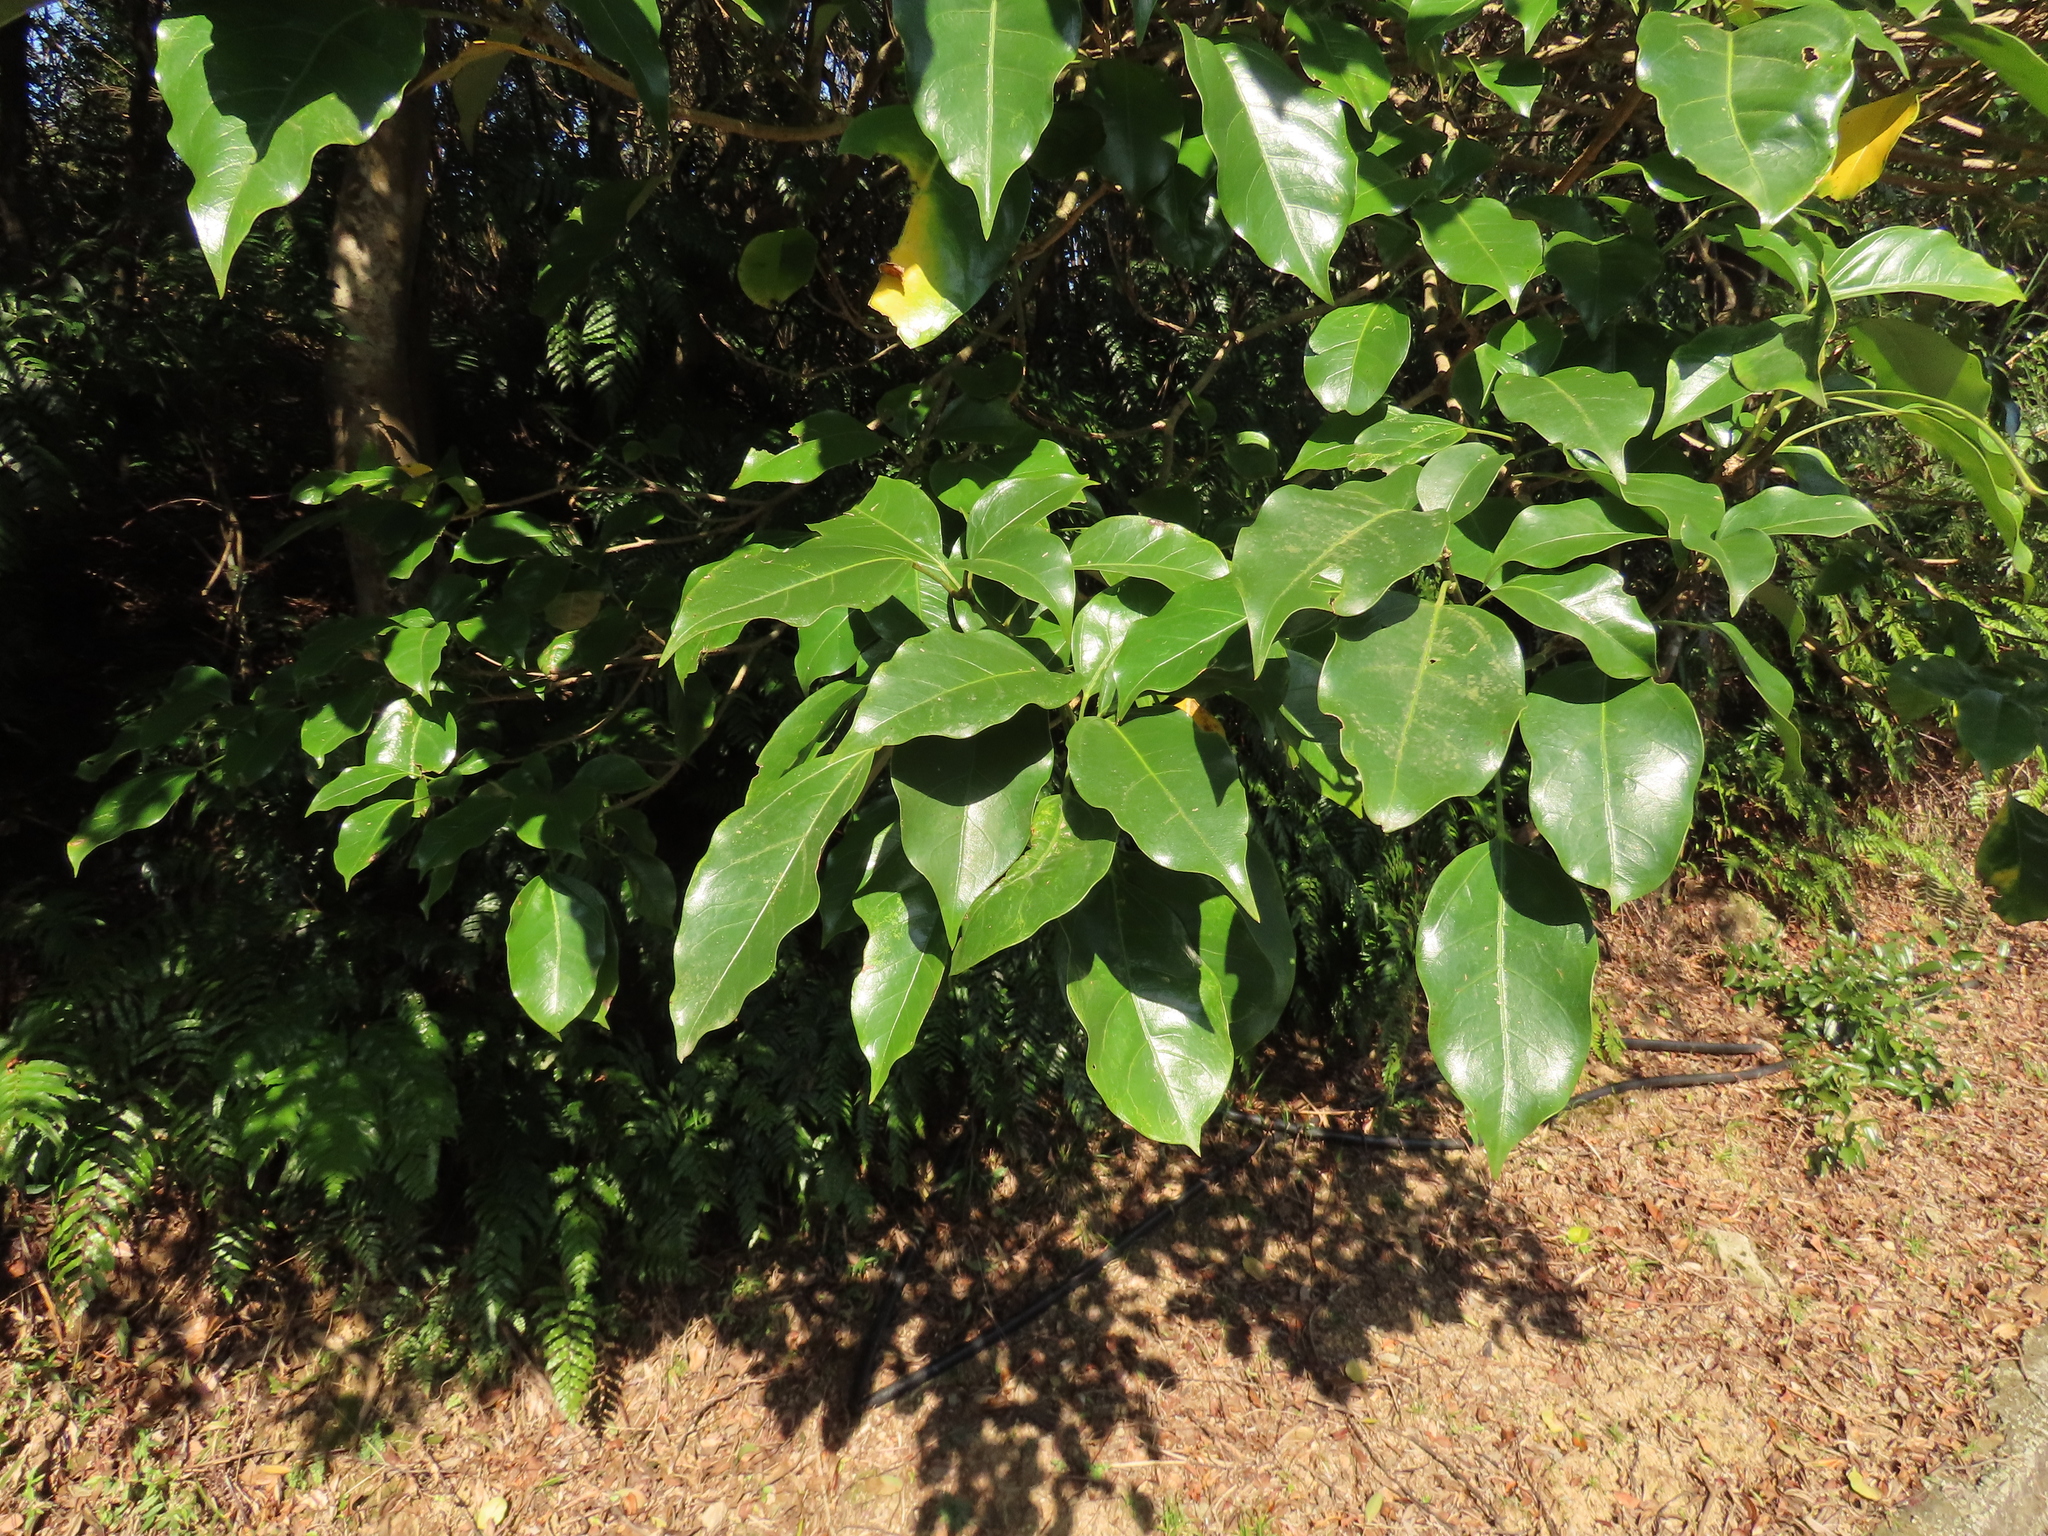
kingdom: Plantae
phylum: Tracheophyta
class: Magnoliopsida
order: Apiales
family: Araliaceae
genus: Dendropanax
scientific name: Dendropanax dentiger
